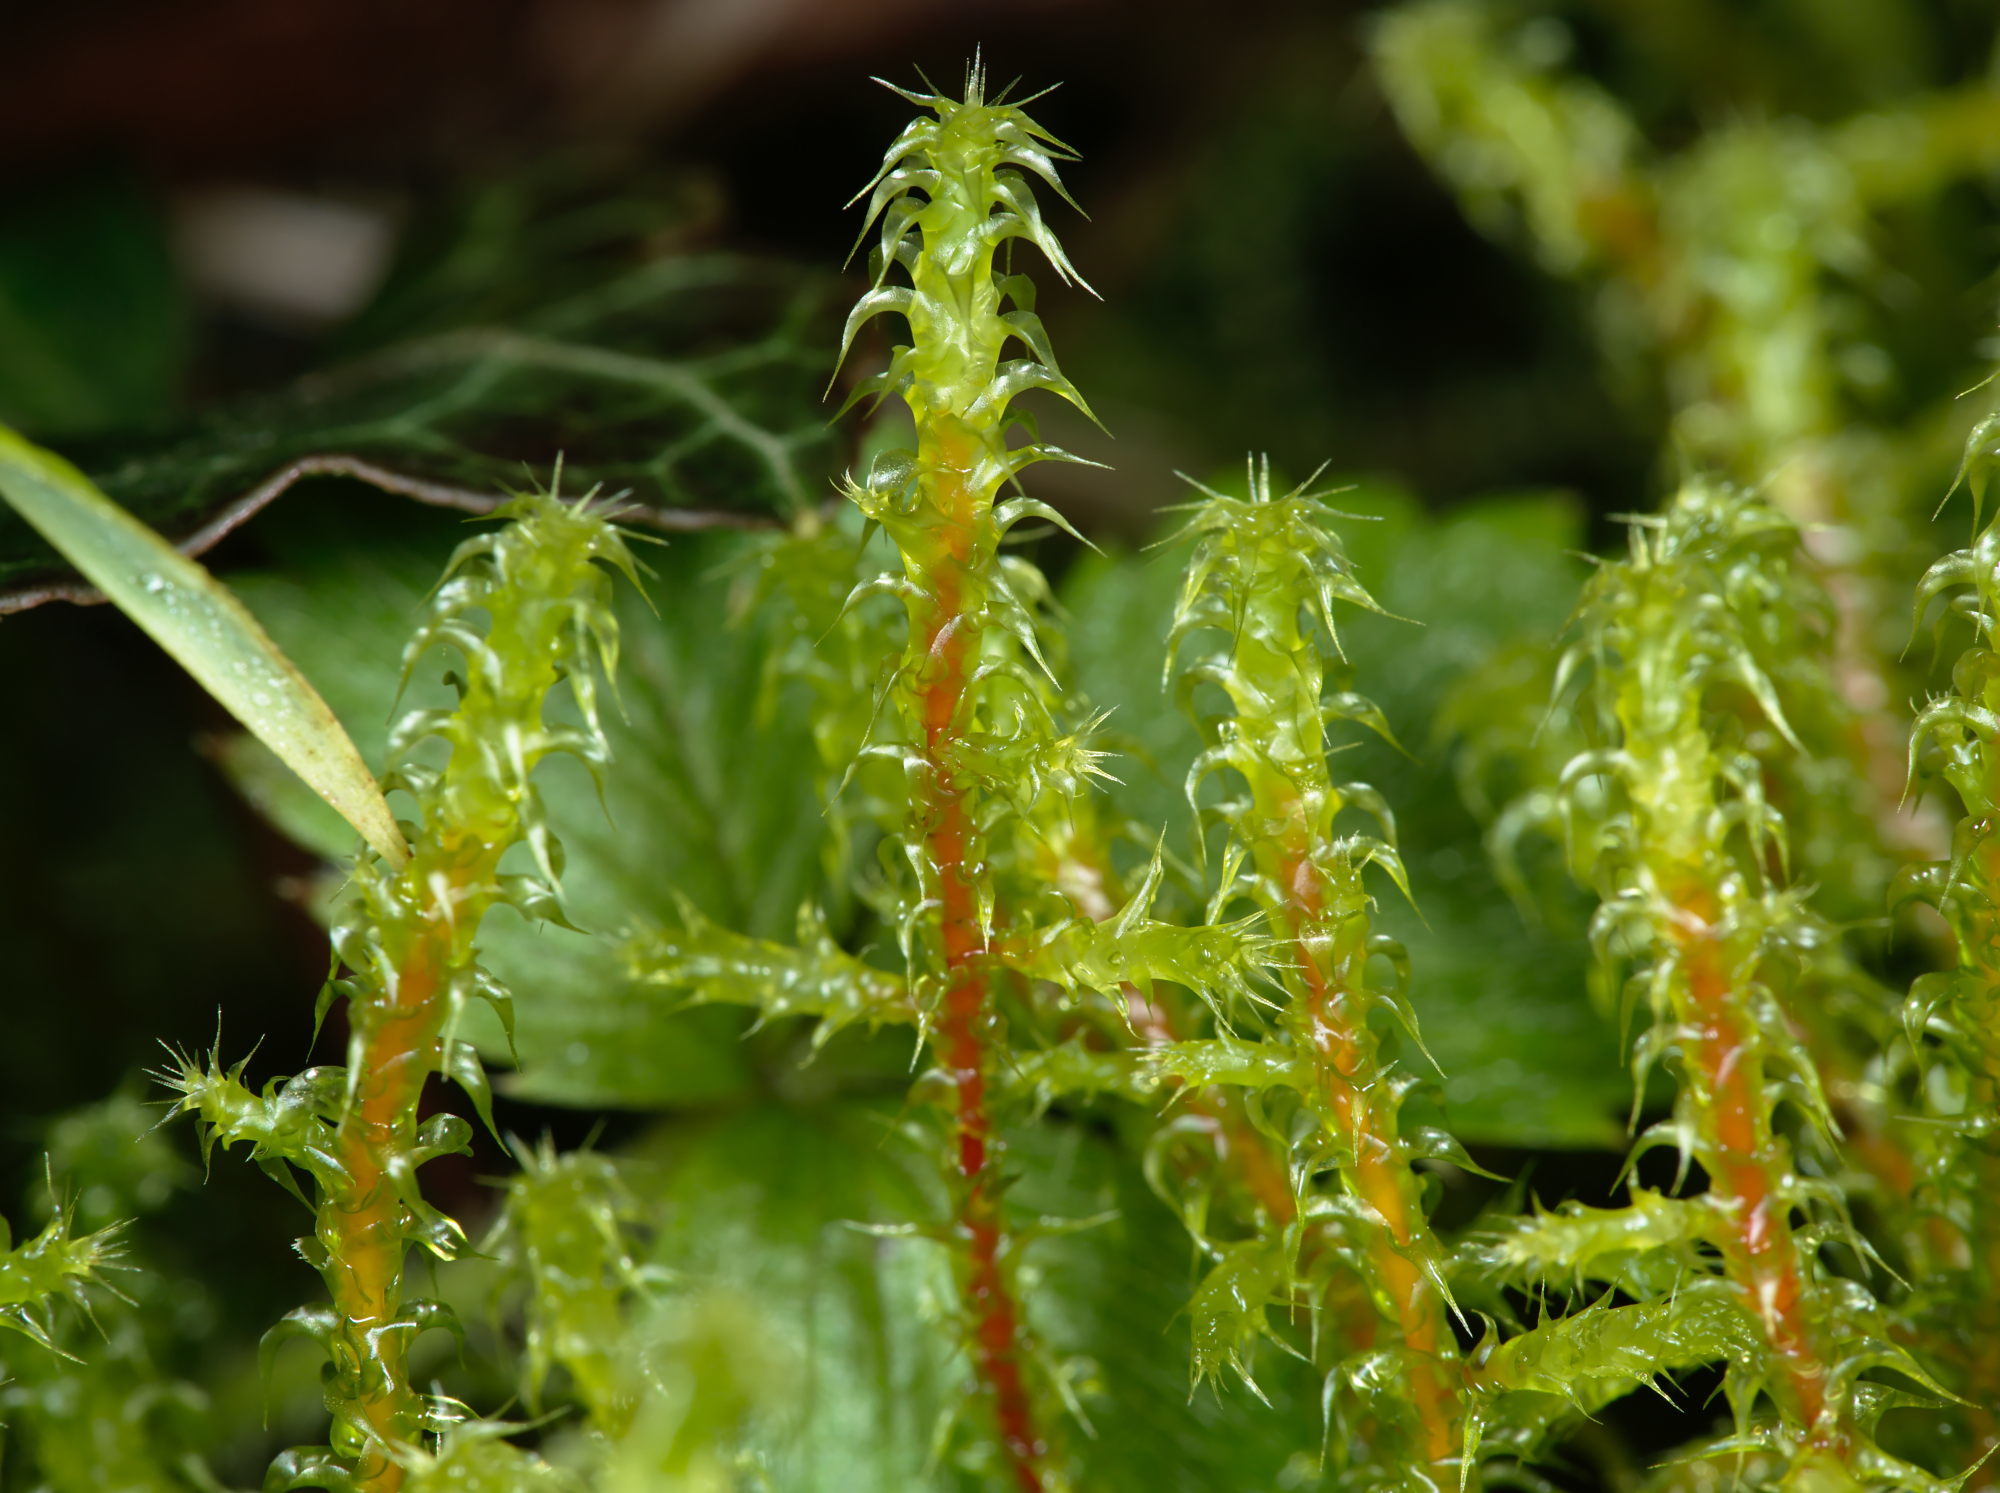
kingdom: Plantae
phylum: Bryophyta
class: Bryopsida
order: Hypnales
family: Hylocomiaceae
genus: Rhytidiadelphus
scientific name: Rhytidiadelphus squarrosus
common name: Springy turf-moss
